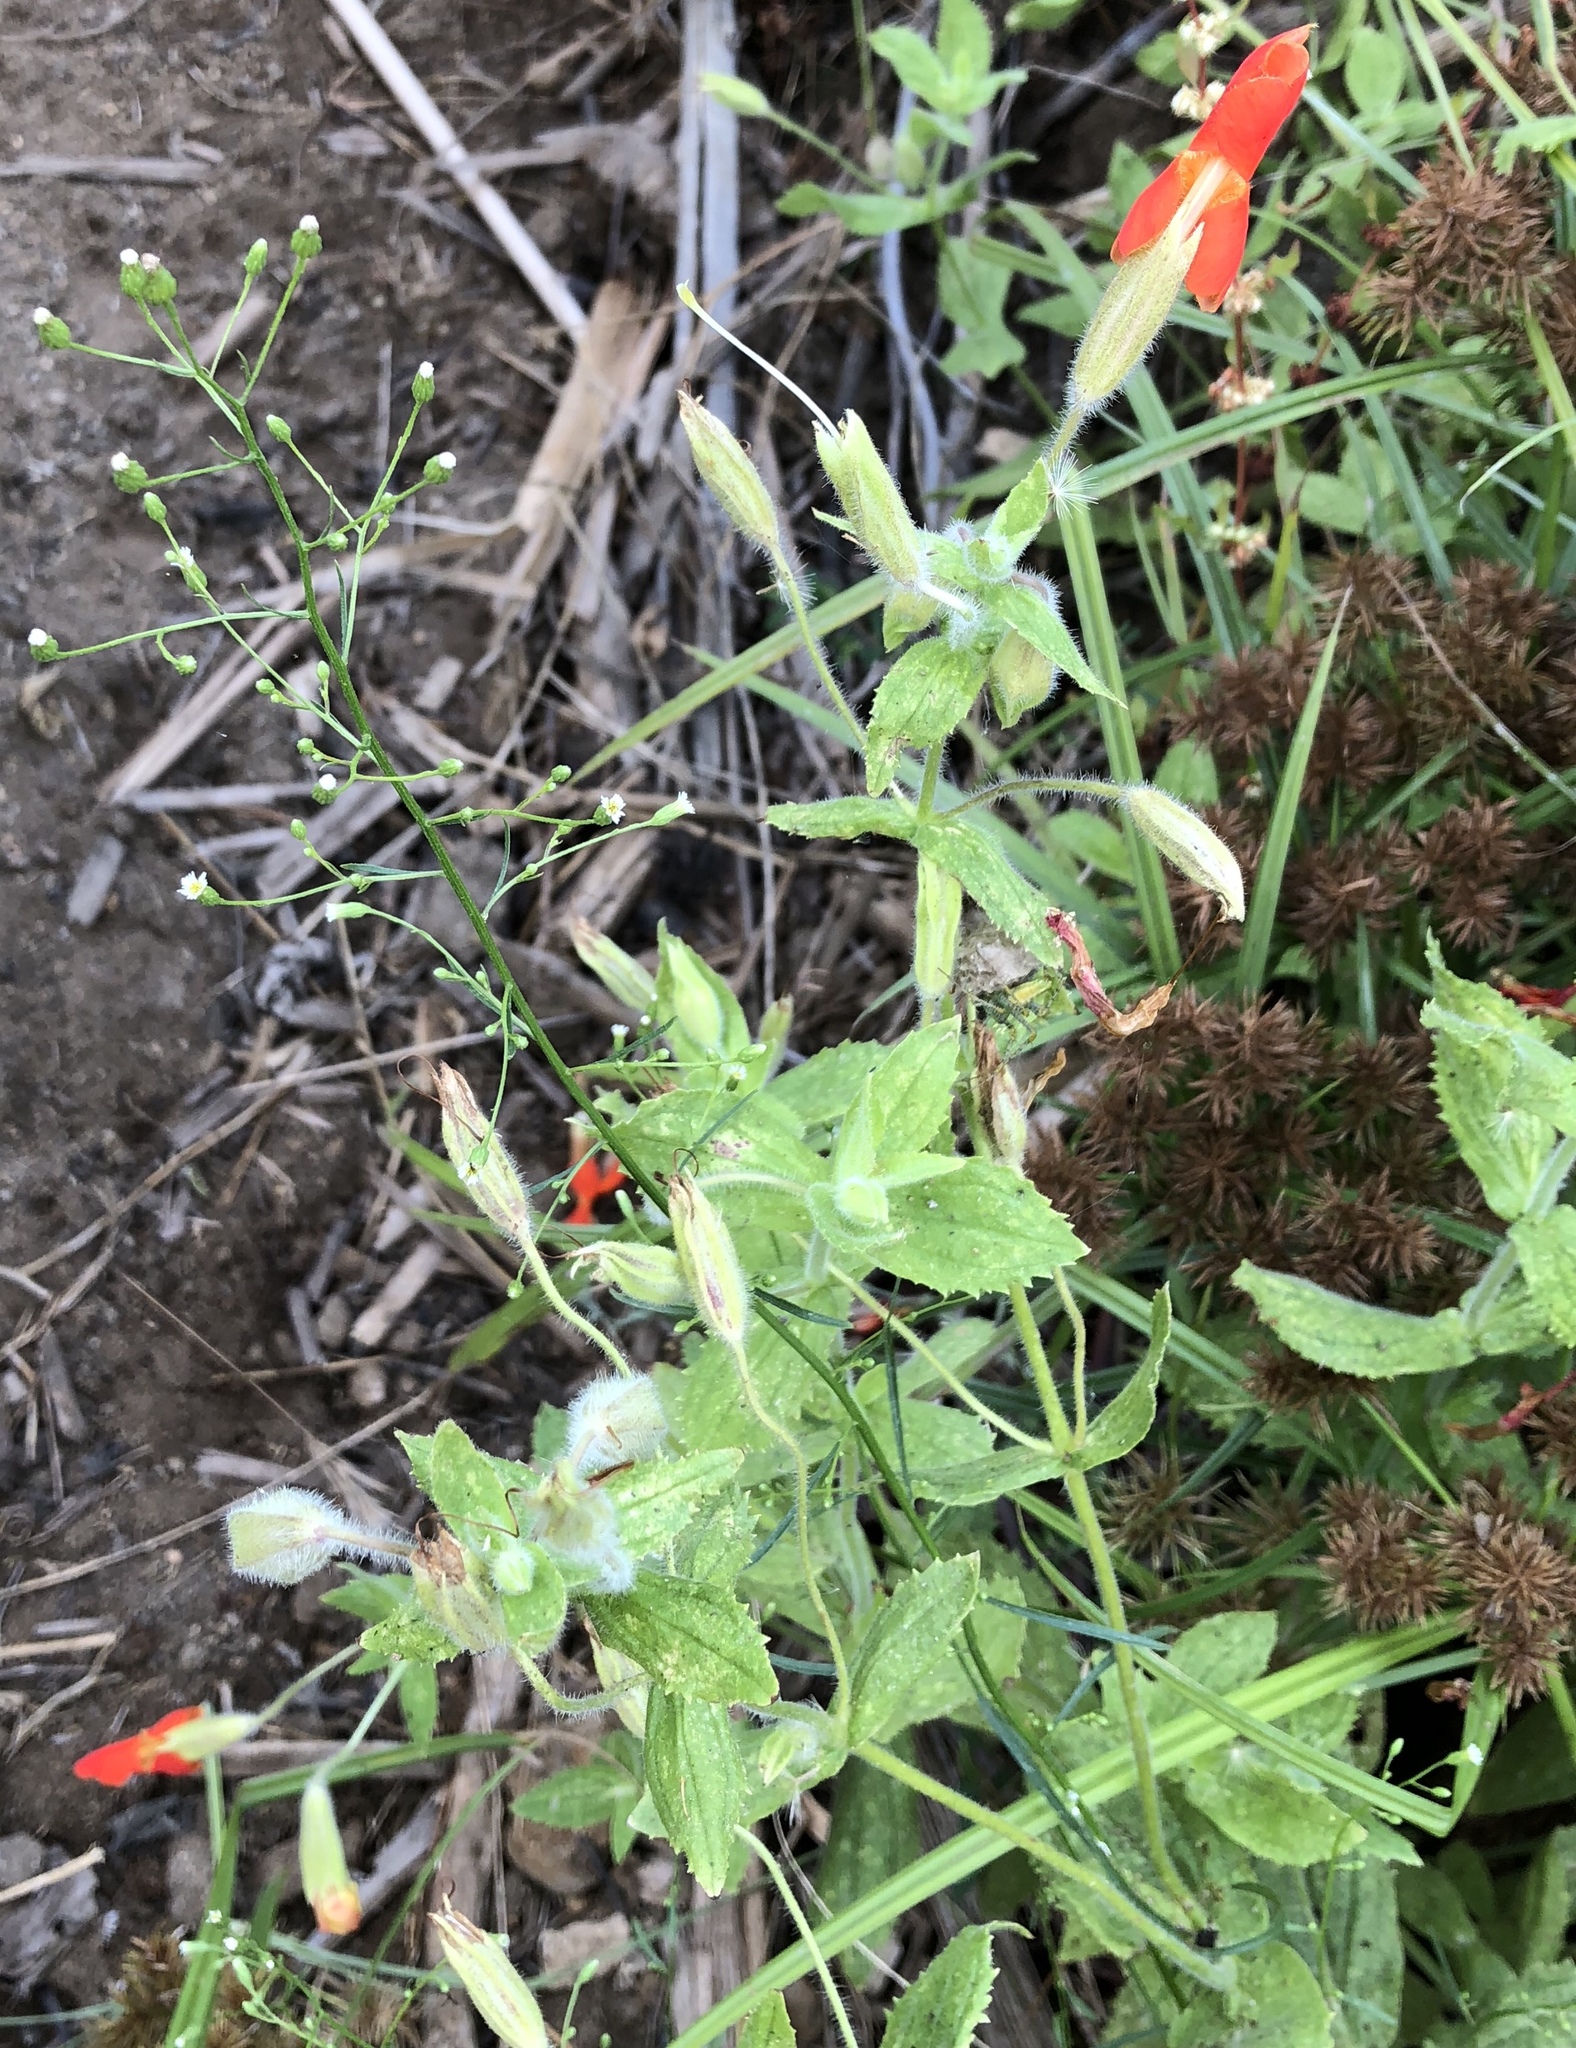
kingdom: Plantae
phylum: Tracheophyta
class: Magnoliopsida
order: Lamiales
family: Phrymaceae
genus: Erythranthe
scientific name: Erythranthe cardinalis
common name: Scarlet monkey-flower
